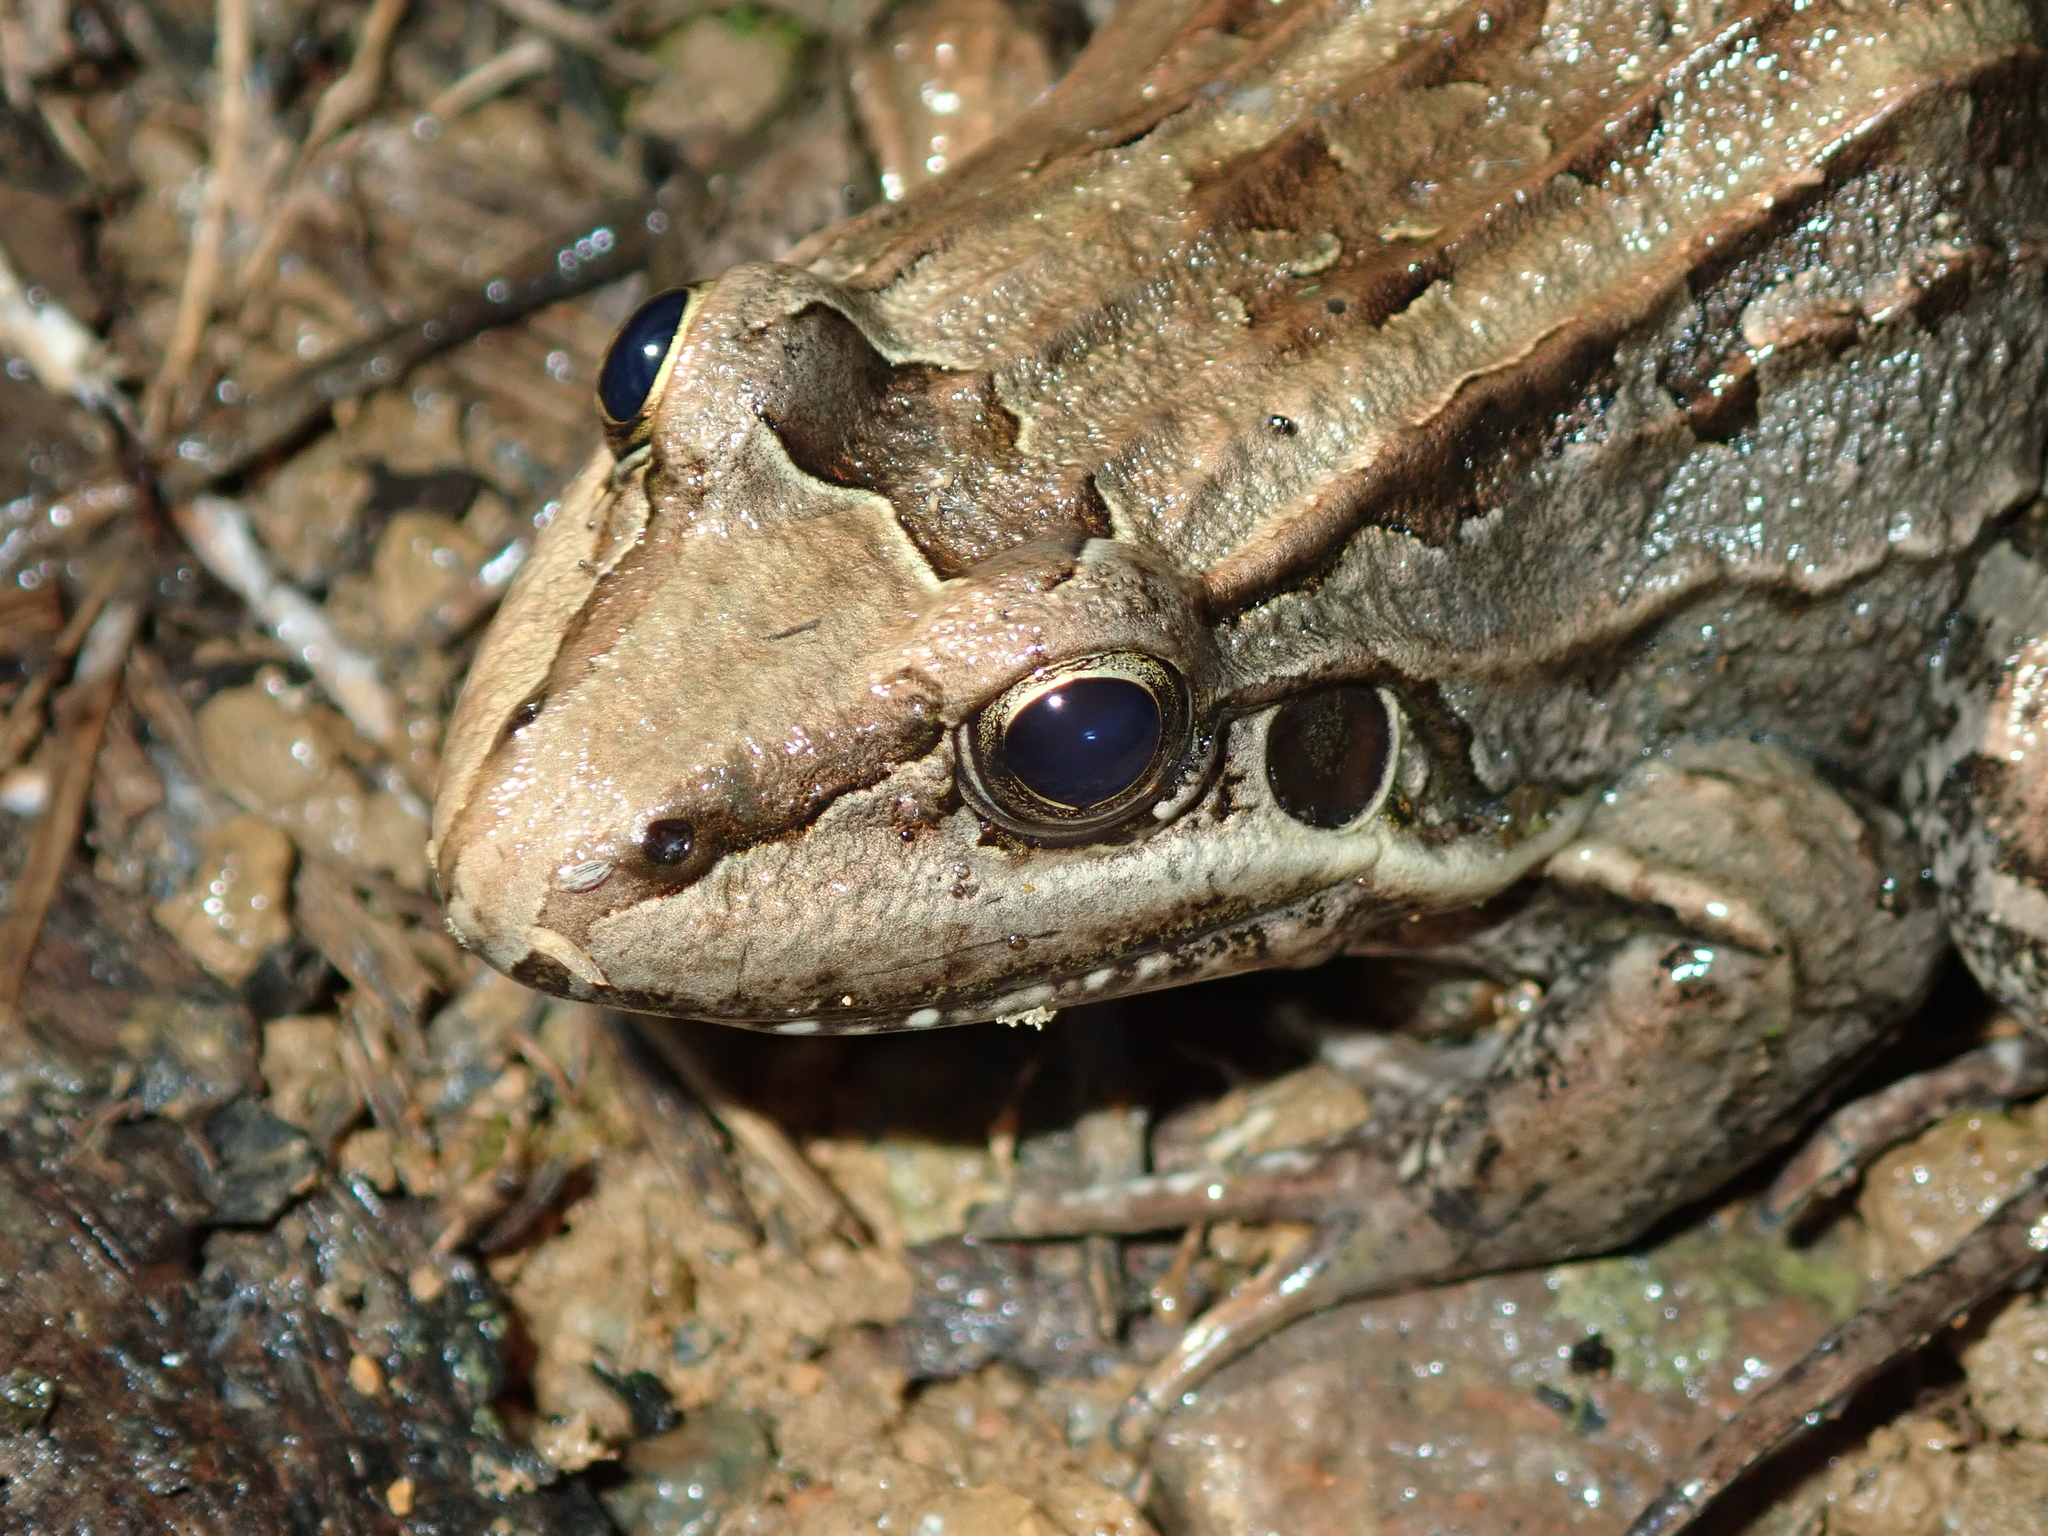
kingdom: Animalia
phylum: Chordata
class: Amphibia
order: Anura
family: Leptodactylidae
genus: Leptodactylus
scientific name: Leptodactylus paranaru
